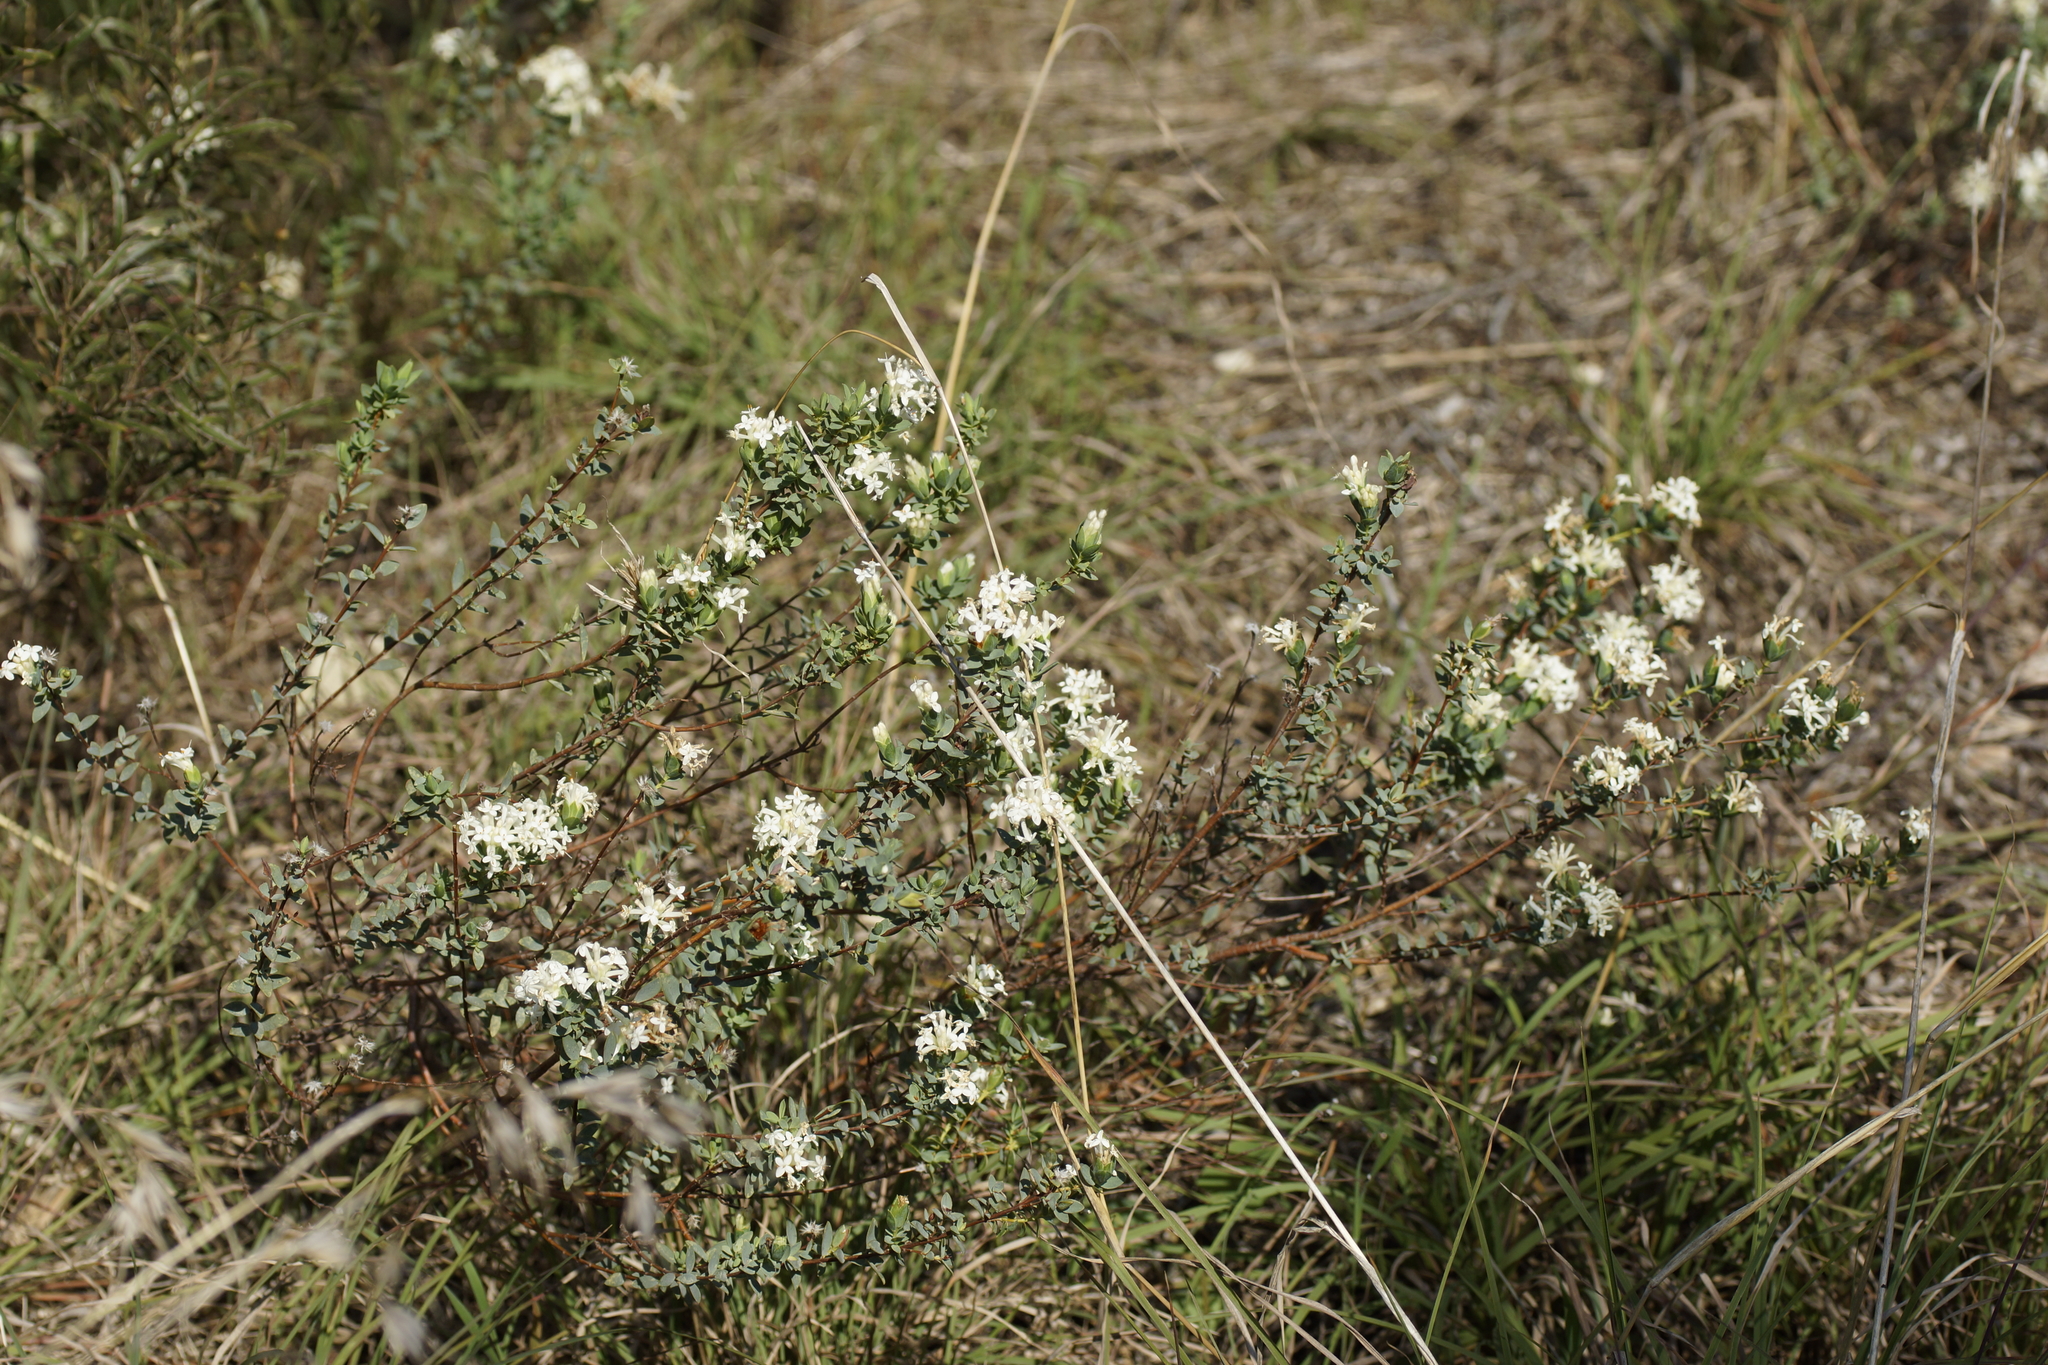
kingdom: Plantae
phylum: Tracheophyta
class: Magnoliopsida
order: Malvales
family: Thymelaeaceae
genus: Pimelea
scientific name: Pimelea glauca
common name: Smooth riceflower
